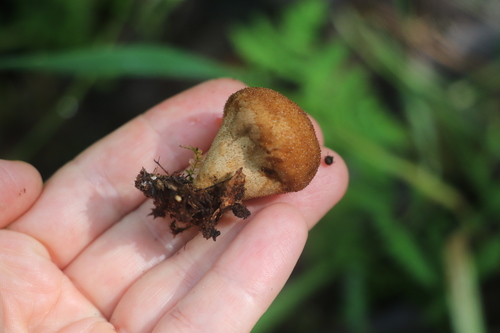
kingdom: Fungi
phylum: Basidiomycota
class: Agaricomycetes
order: Agaricales
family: Lycoperdaceae
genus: Lycoperdon
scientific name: Lycoperdon
